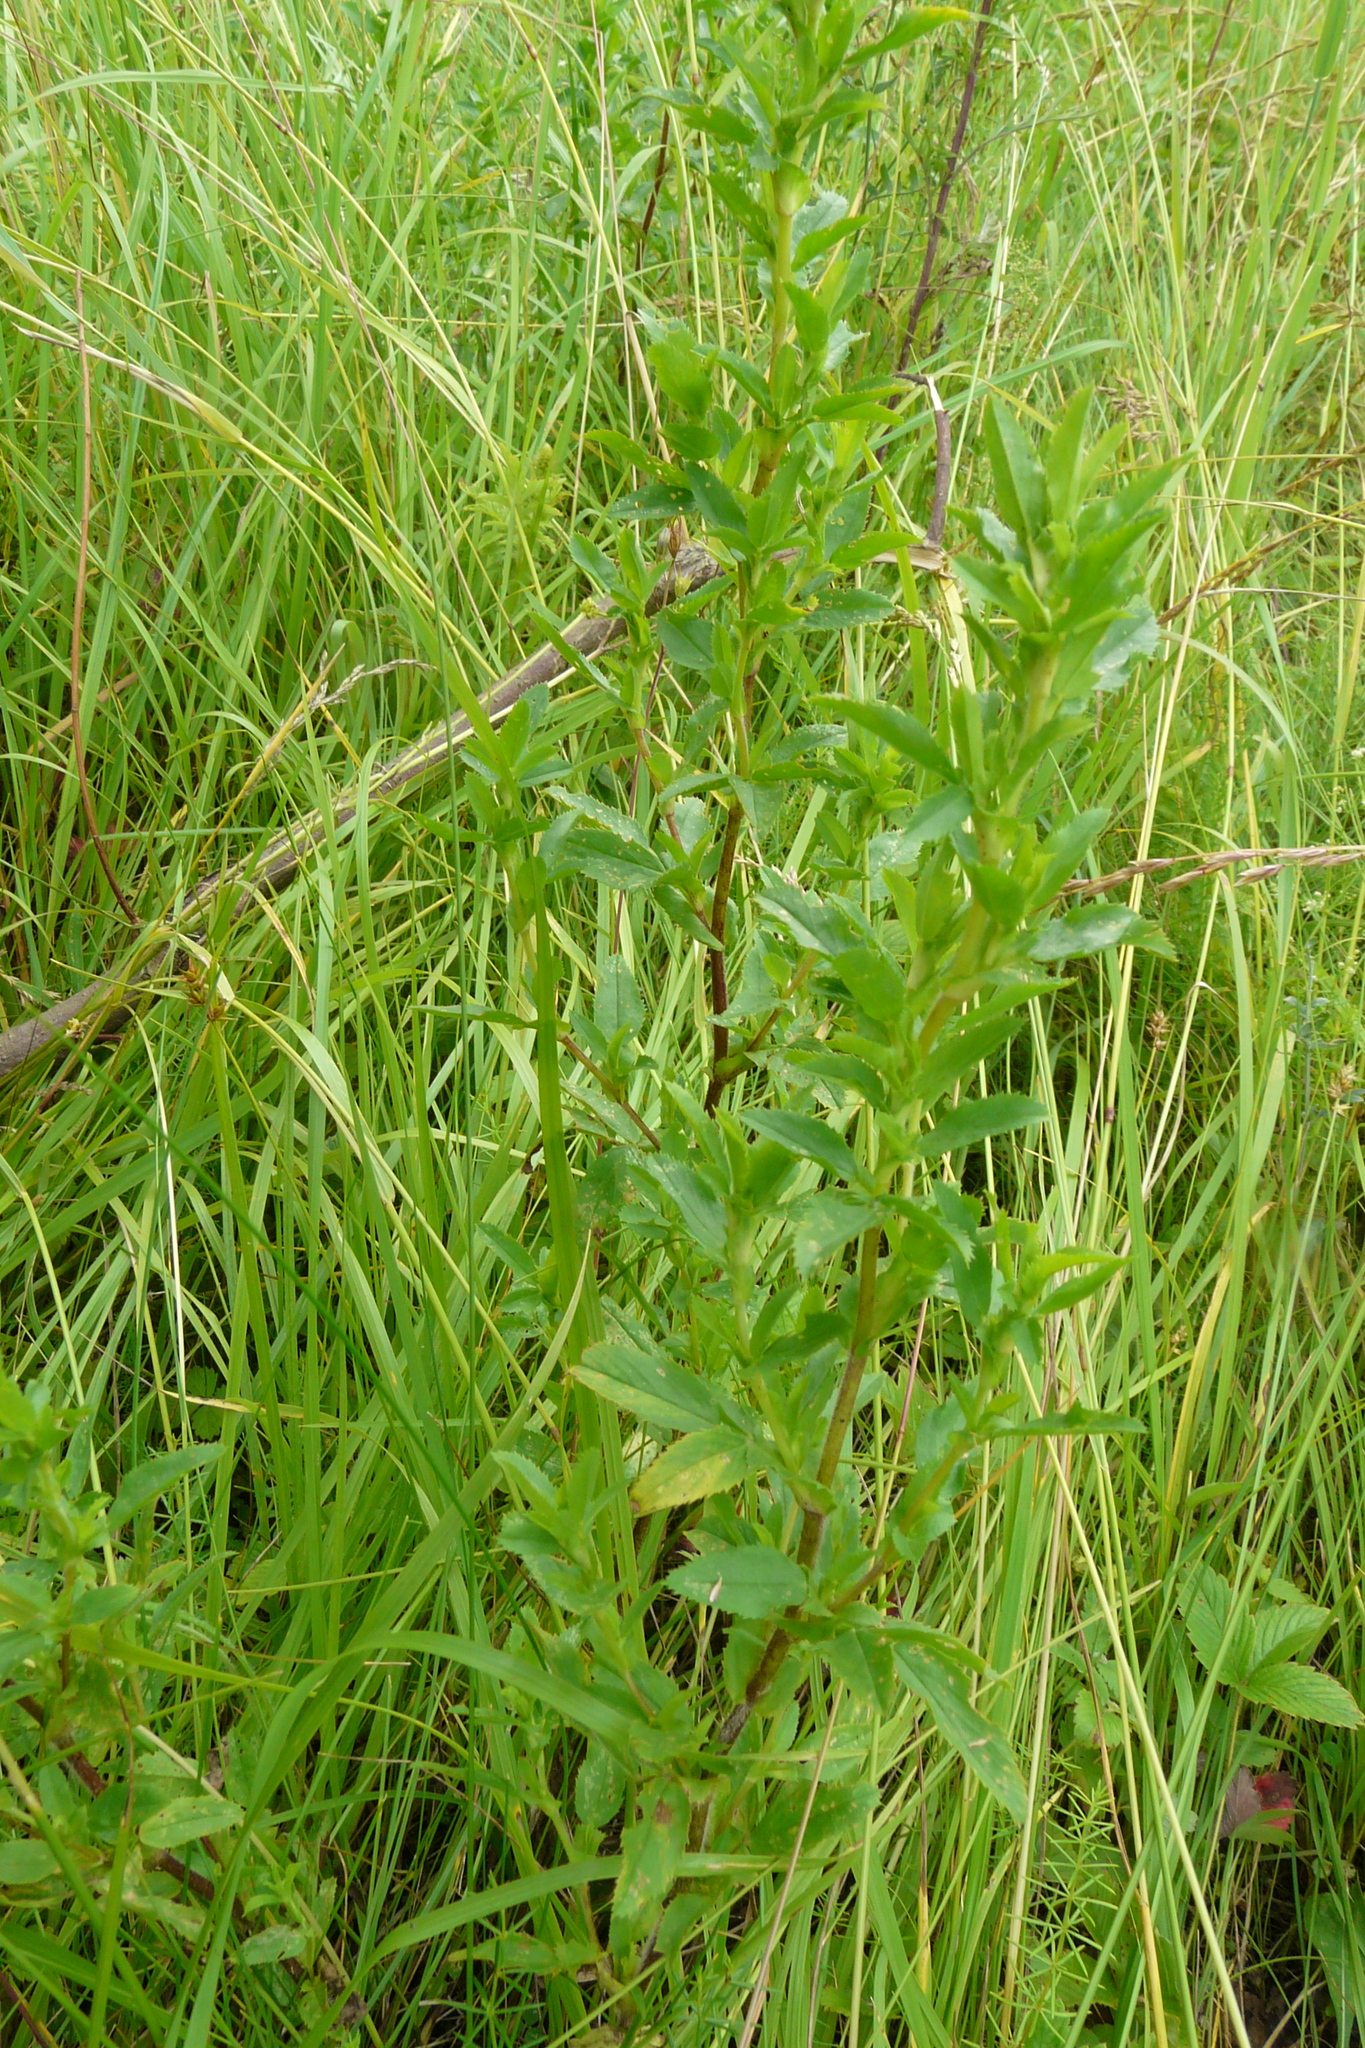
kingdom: Plantae
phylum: Tracheophyta
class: Magnoliopsida
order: Fabales
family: Fabaceae
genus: Ononis
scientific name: Ononis arvensis
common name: Field restharrow
